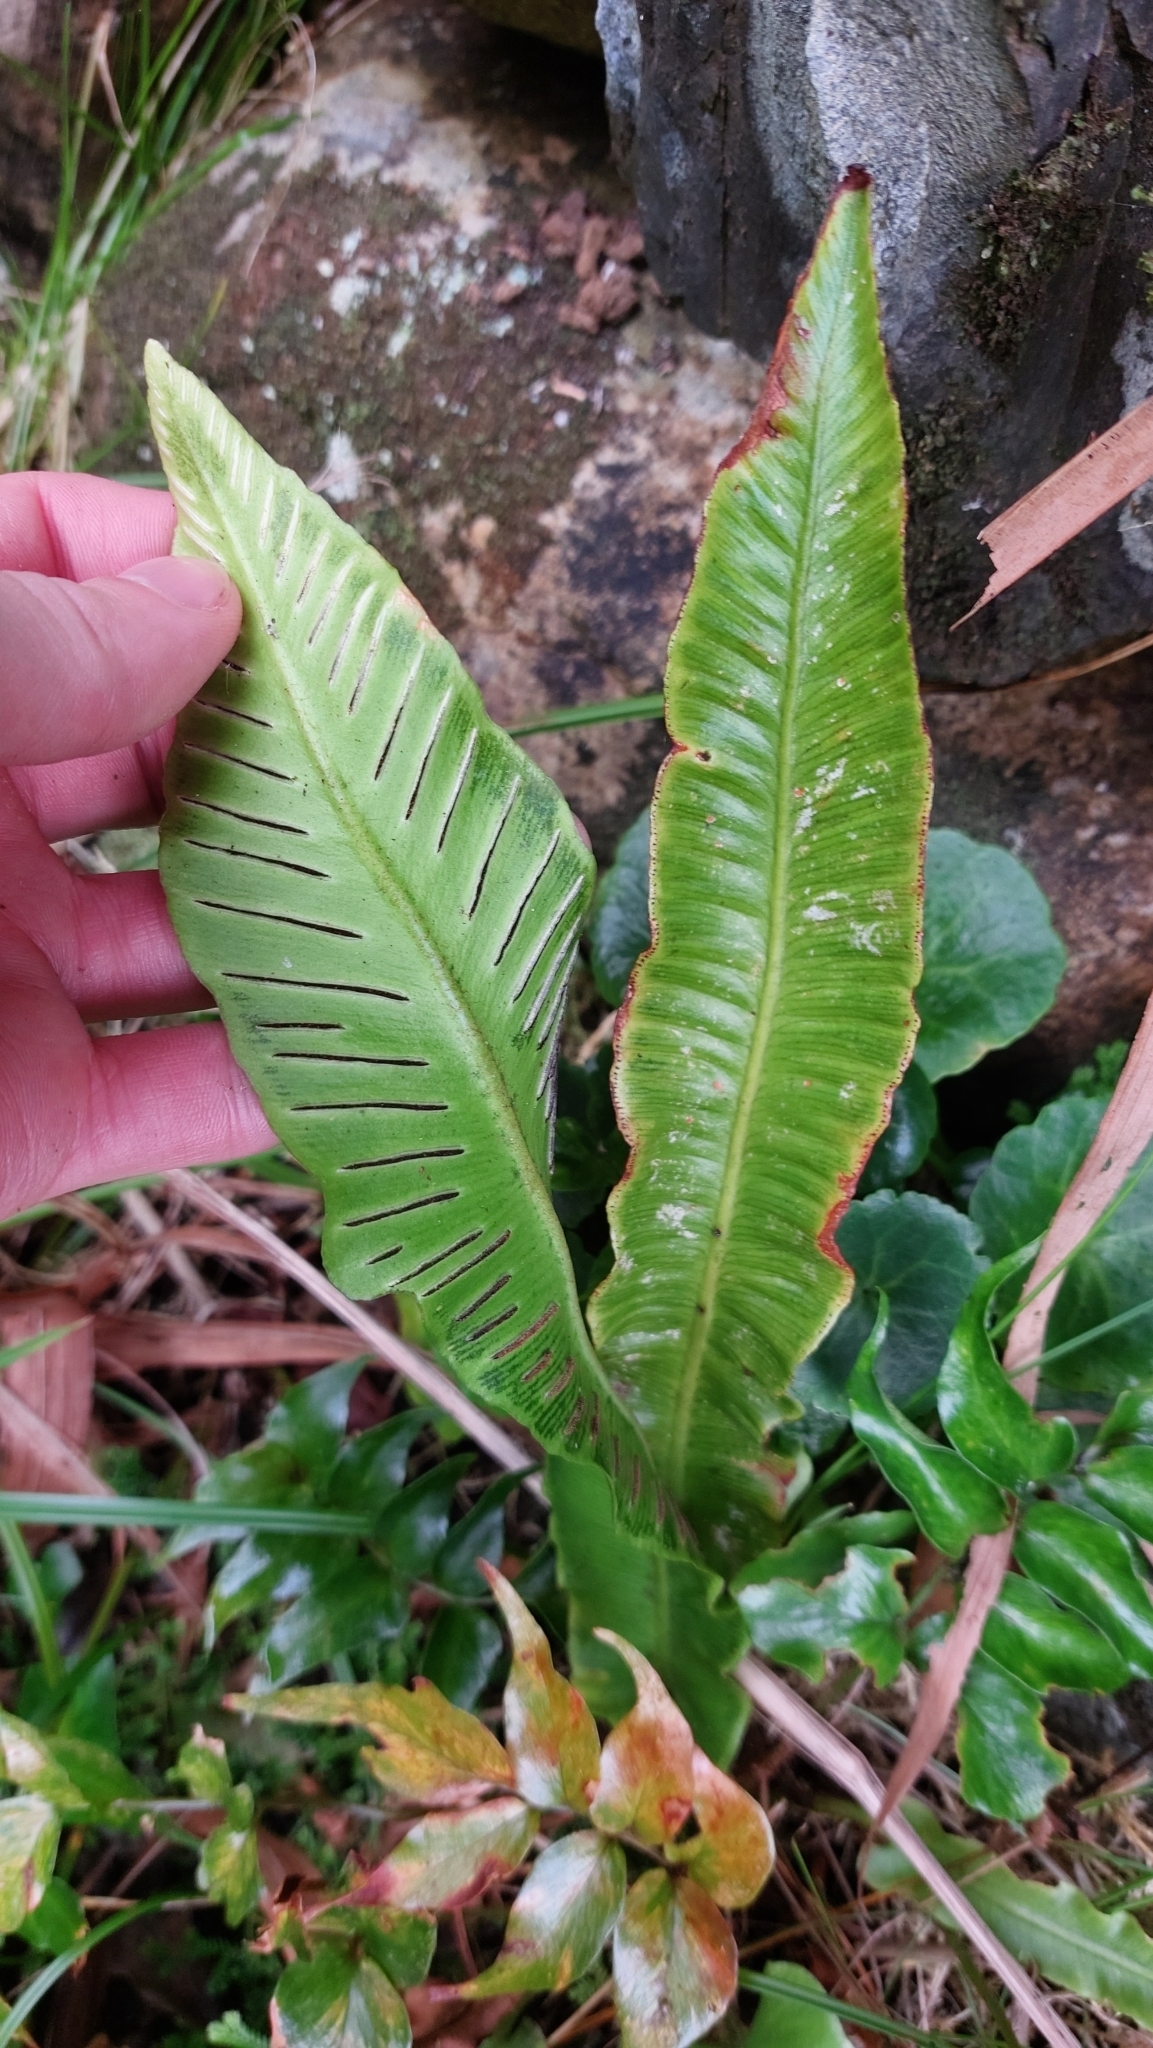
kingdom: Plantae
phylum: Tracheophyta
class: Polypodiopsida
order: Polypodiales
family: Aspleniaceae
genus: Asplenium
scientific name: Asplenium scolopendrium
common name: Hart's-tongue fern
